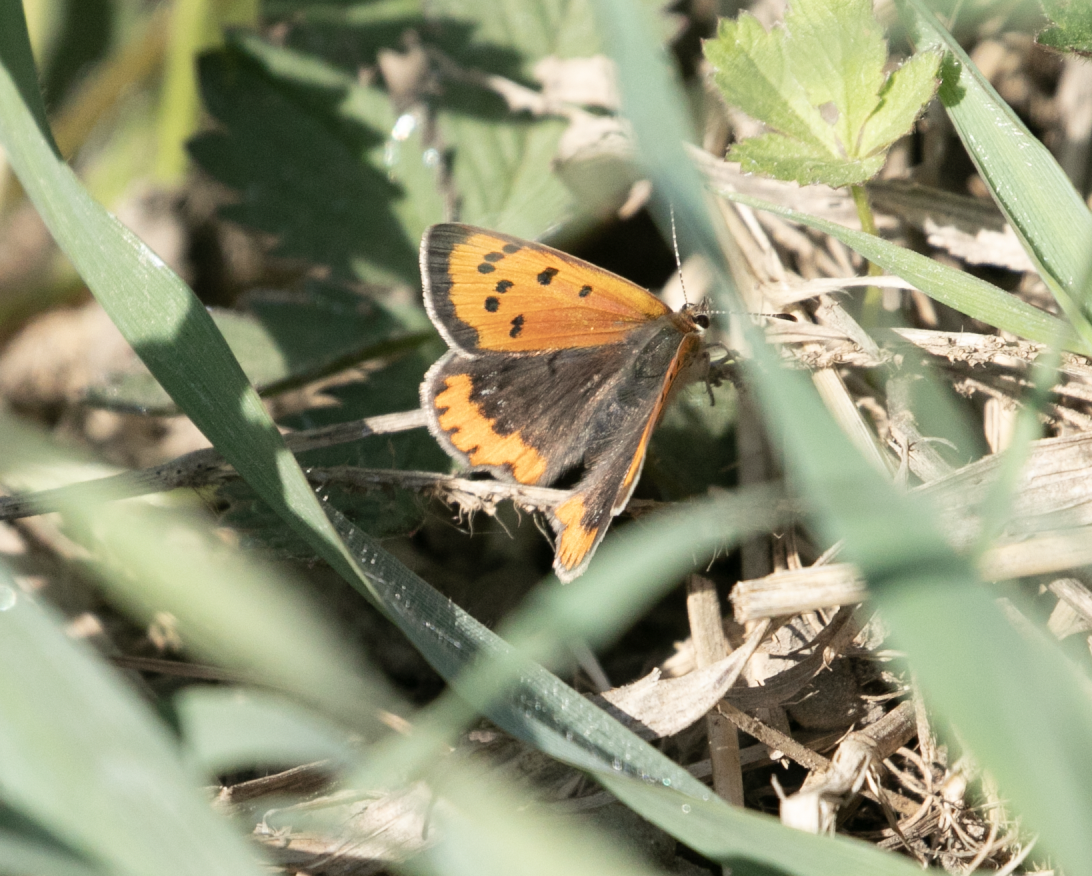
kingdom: Animalia
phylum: Arthropoda
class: Insecta
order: Lepidoptera
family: Lycaenidae
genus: Lycaena
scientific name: Lycaena phlaeas
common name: Small copper
